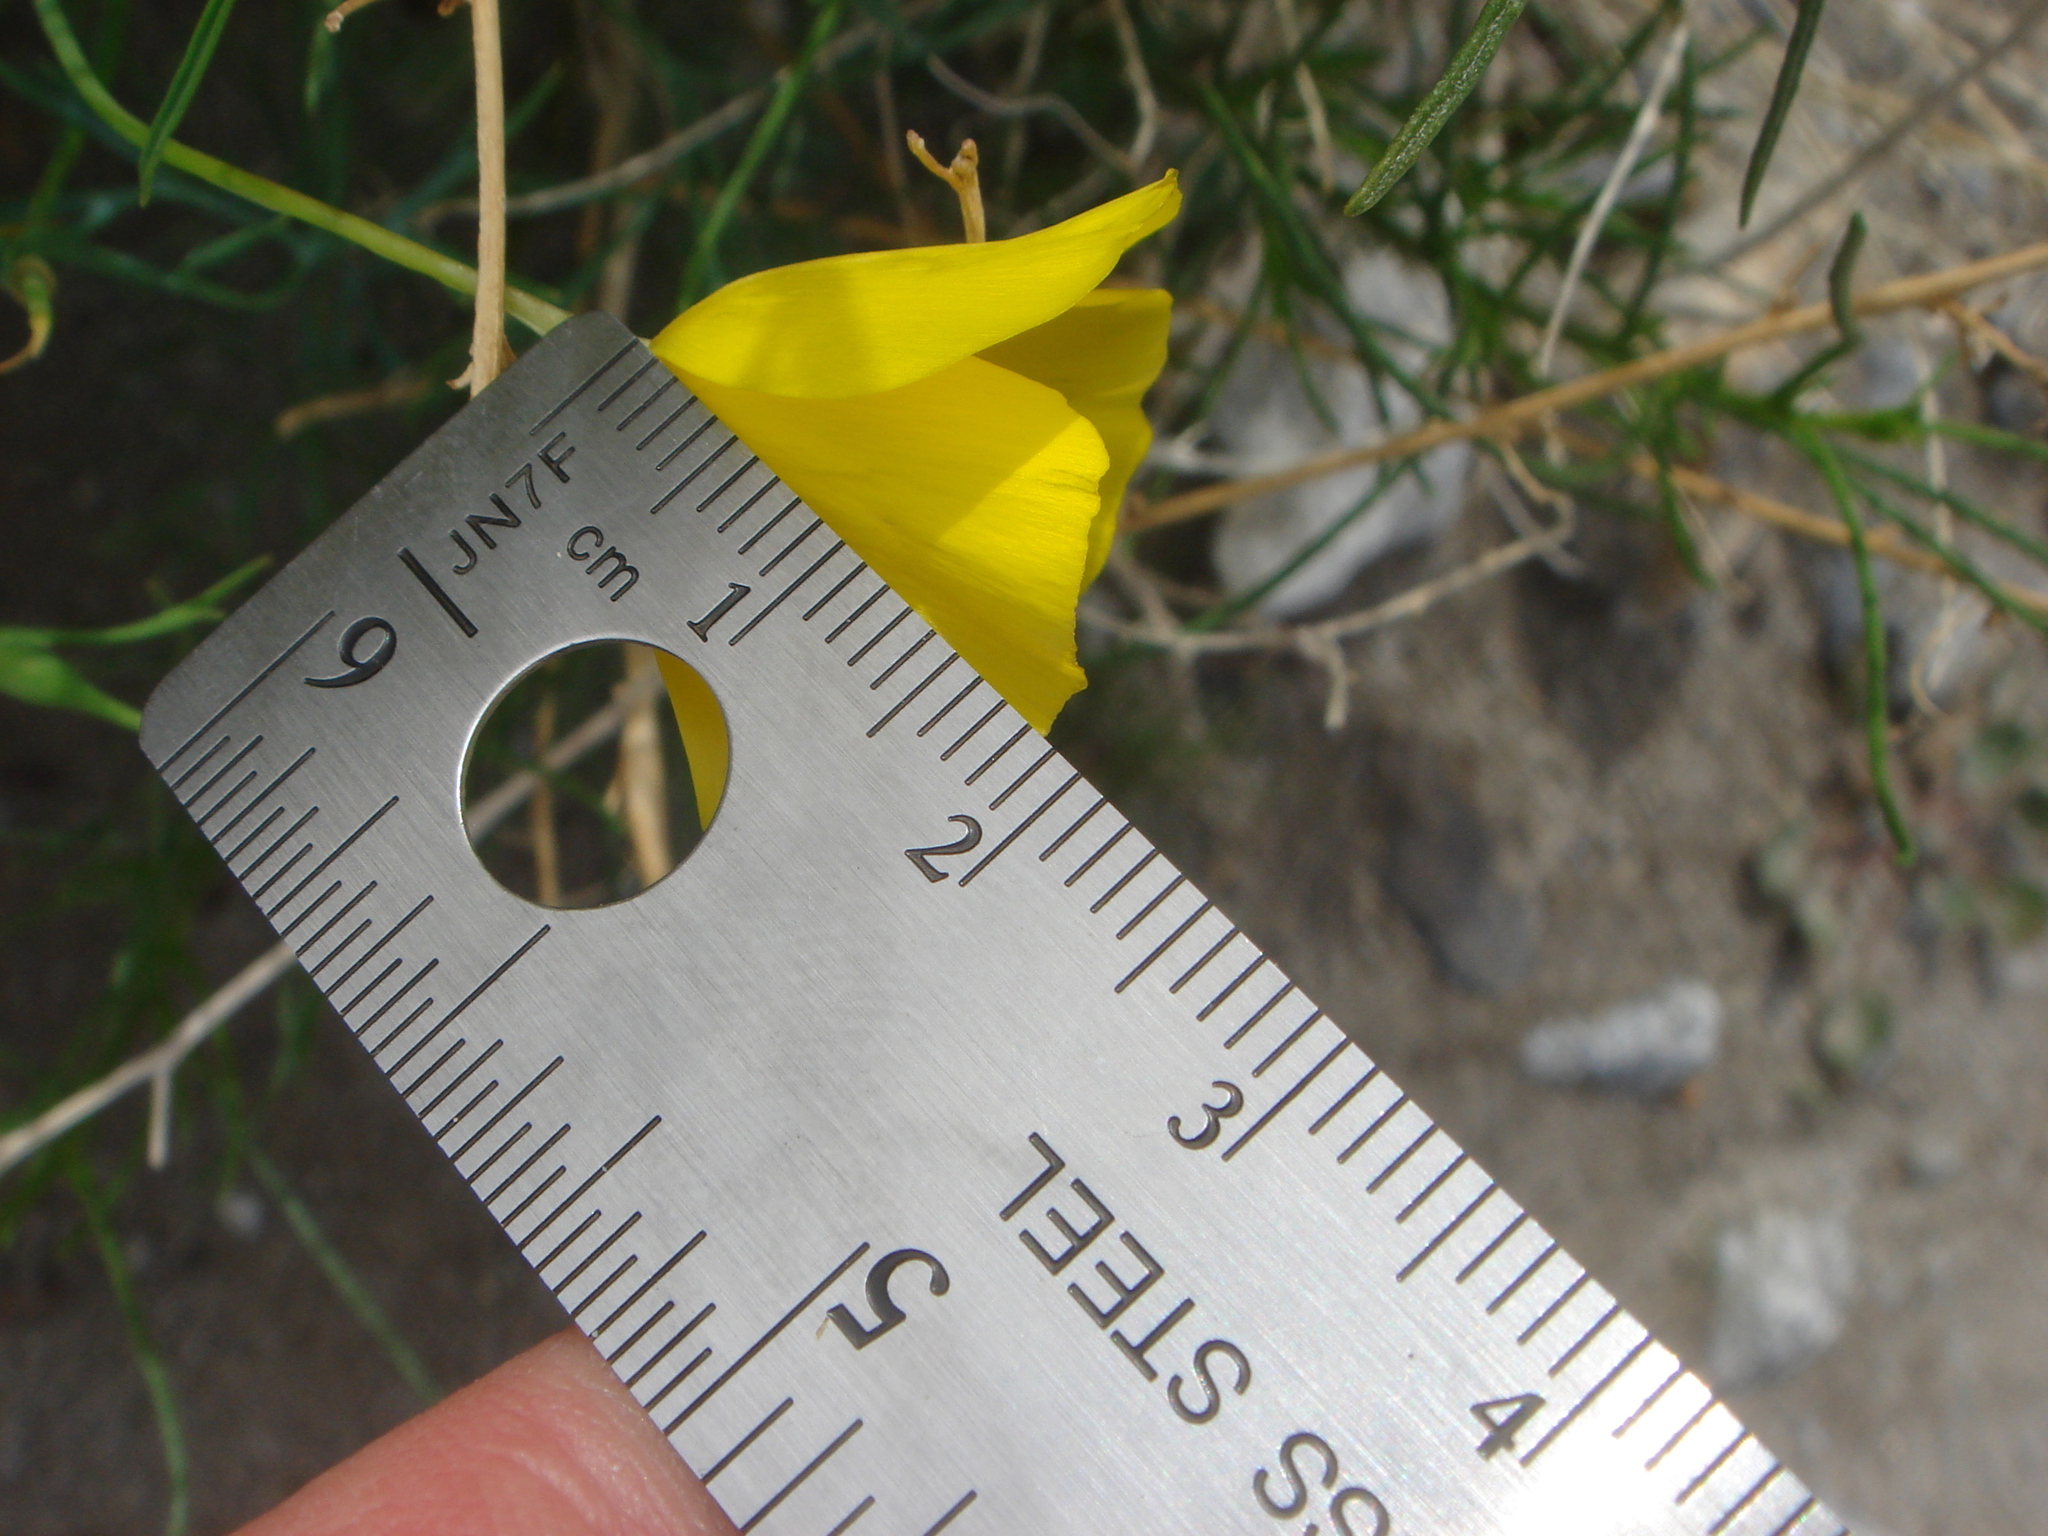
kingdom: Plantae
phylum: Tracheophyta
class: Magnoliopsida
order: Ranunculales
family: Papaveraceae
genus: Eschscholzia
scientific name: Eschscholzia parishii
